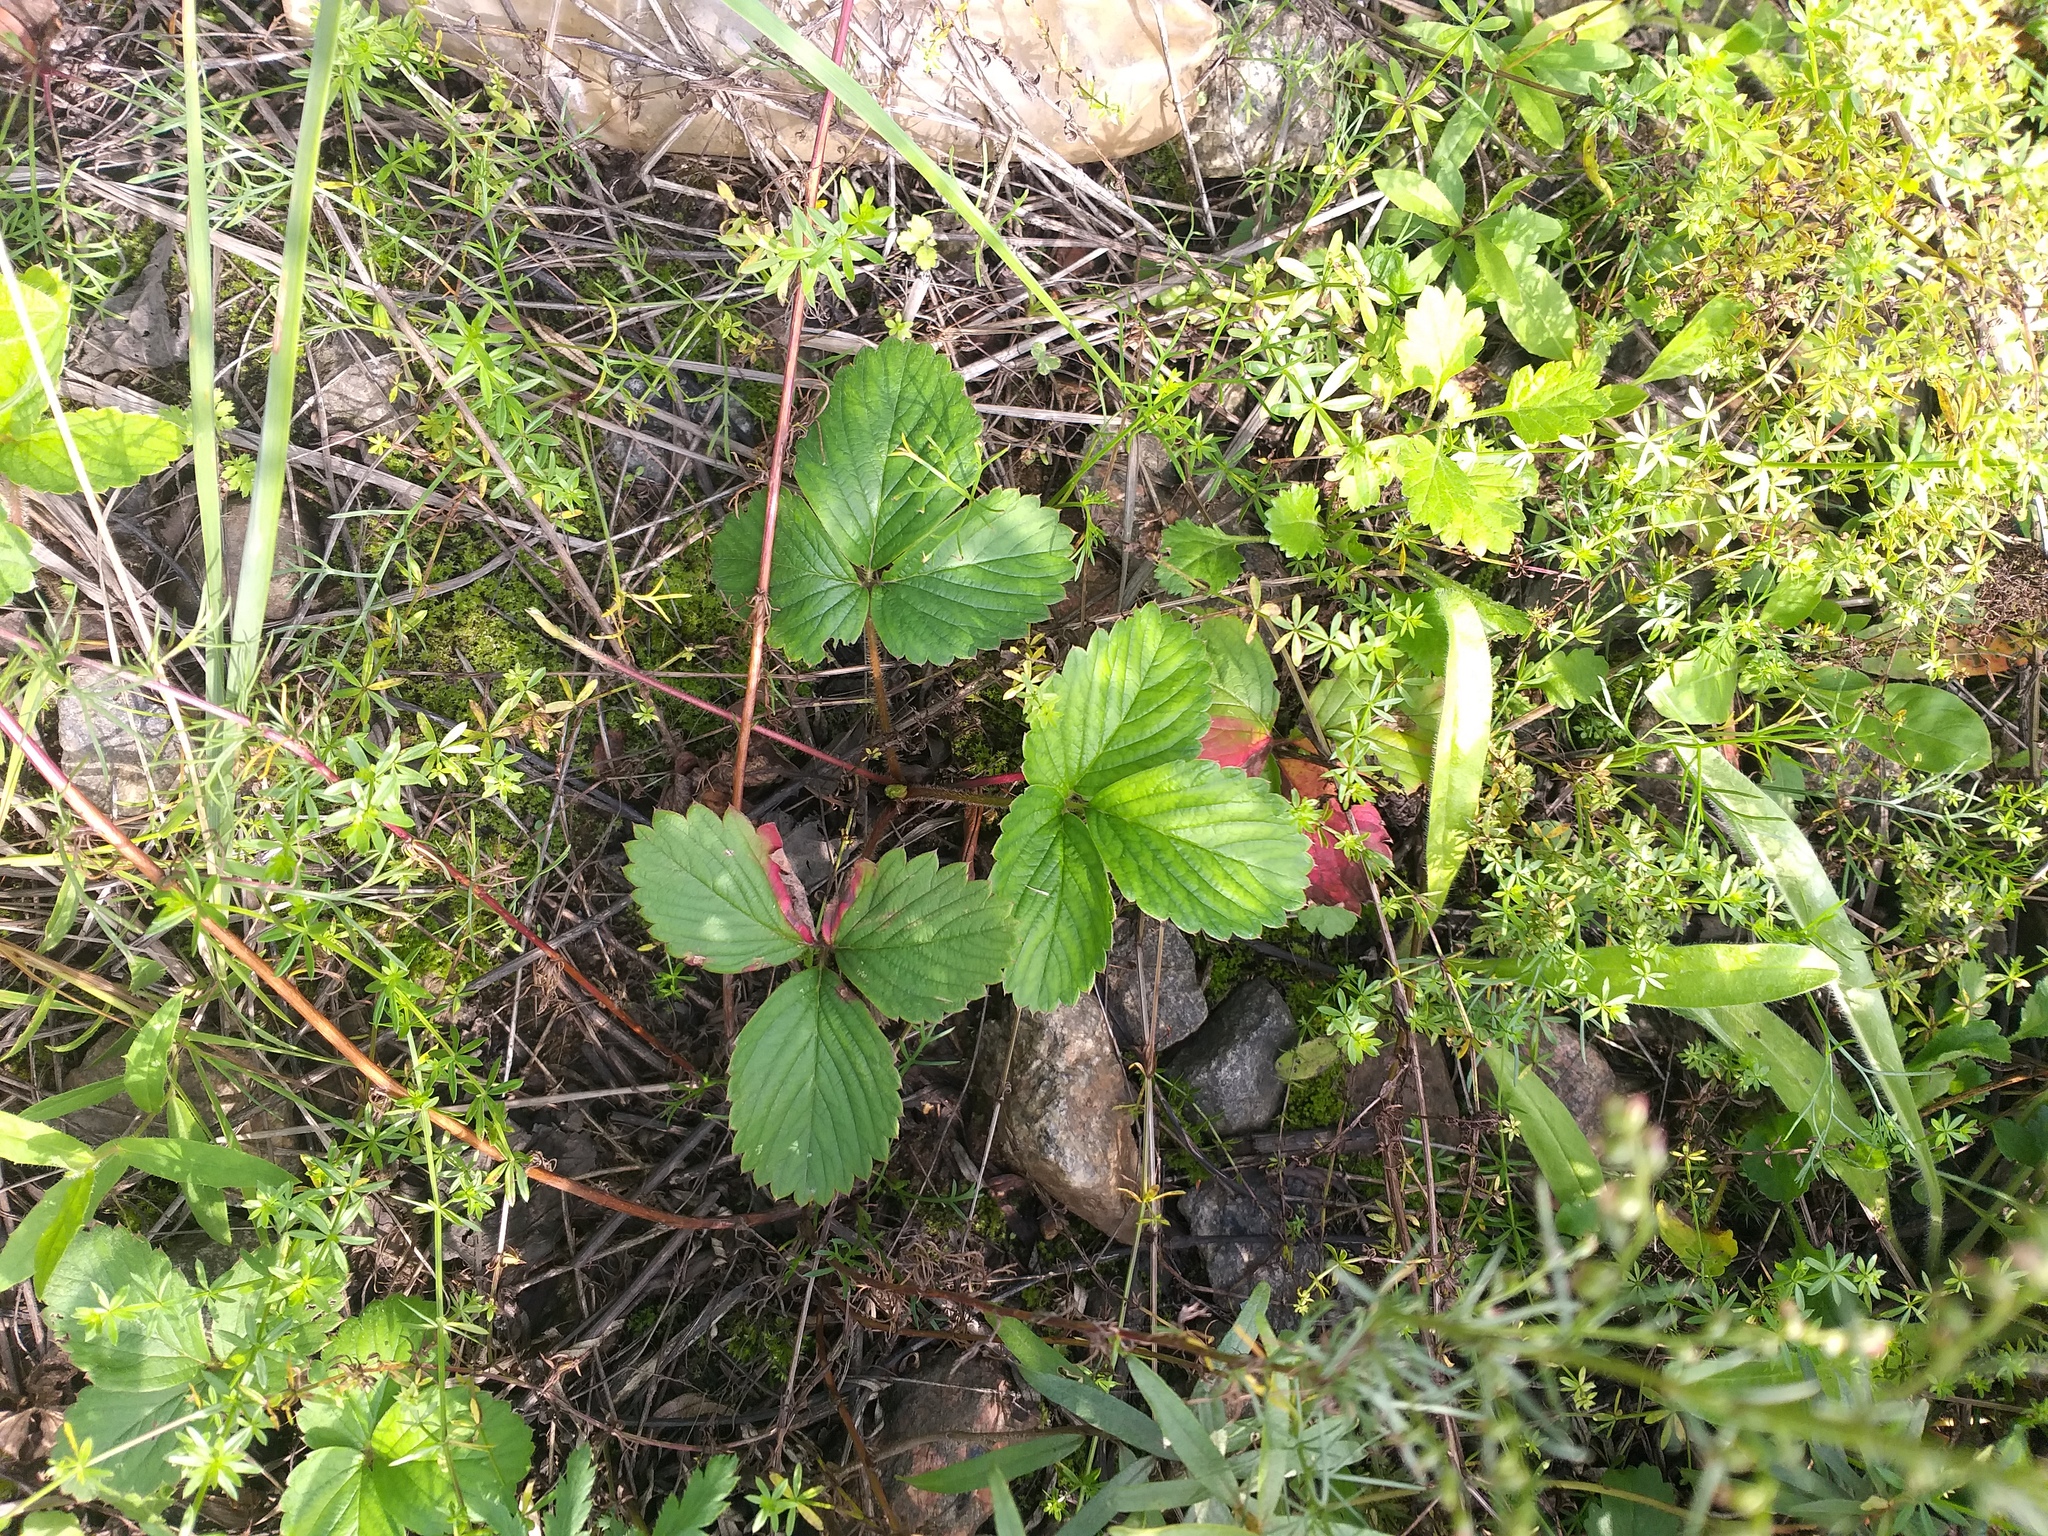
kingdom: Plantae
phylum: Tracheophyta
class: Magnoliopsida
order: Rosales
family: Rosaceae
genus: Fragaria
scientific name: Fragaria ananassa
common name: Garden strawberry
